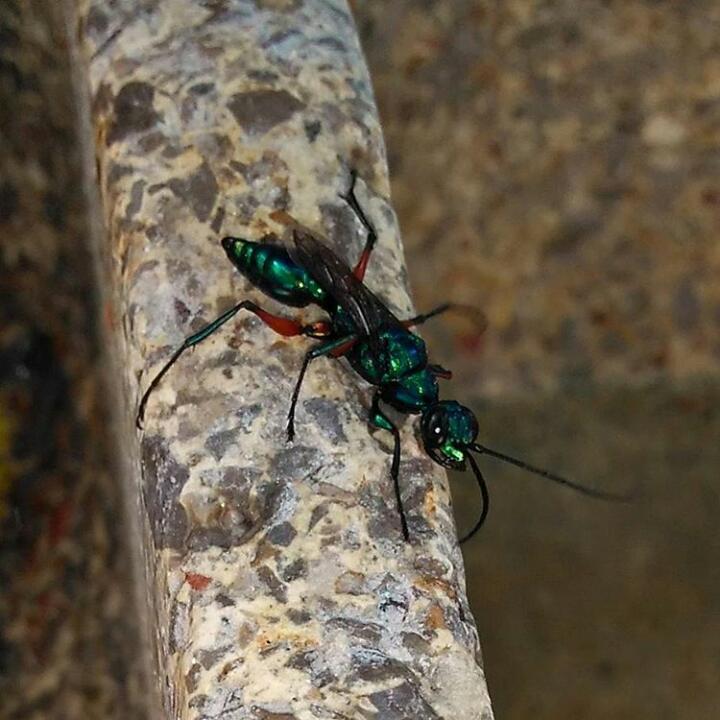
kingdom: Animalia
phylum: Arthropoda
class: Insecta
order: Hymenoptera
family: Ampulicidae
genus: Ampulex
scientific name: Ampulex compressa
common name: Emerald cockroach wasp
